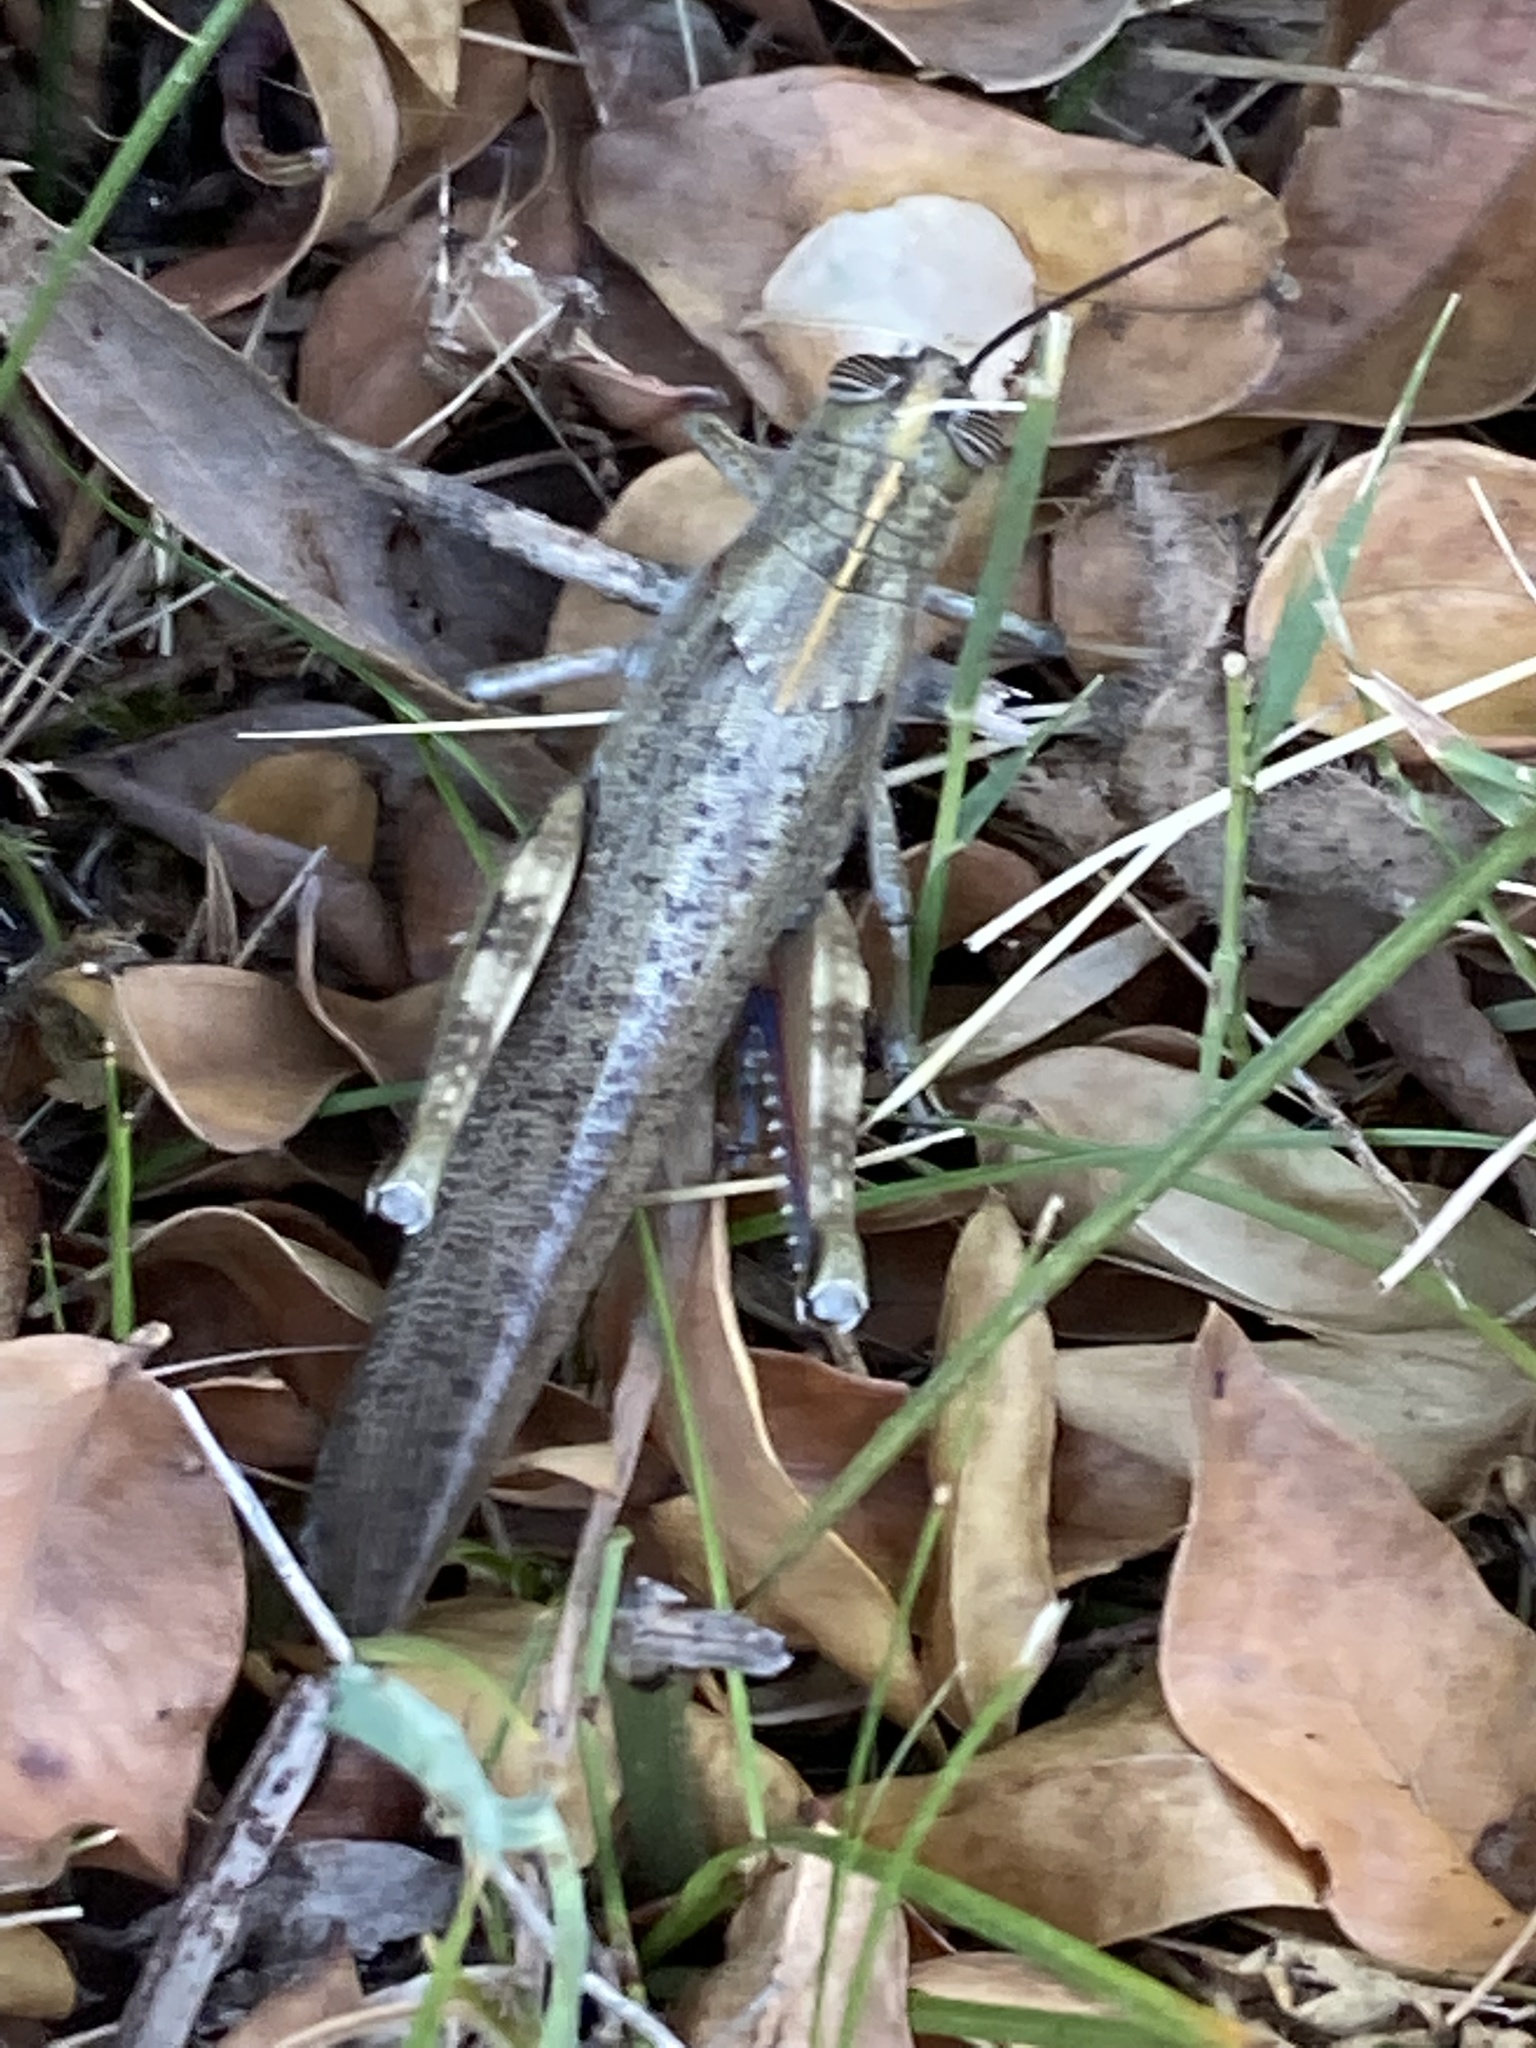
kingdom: Animalia
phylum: Arthropoda
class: Insecta
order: Orthoptera
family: Acrididae
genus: Anacridium
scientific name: Anacridium aegyptium
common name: Egyptian grasshopper
